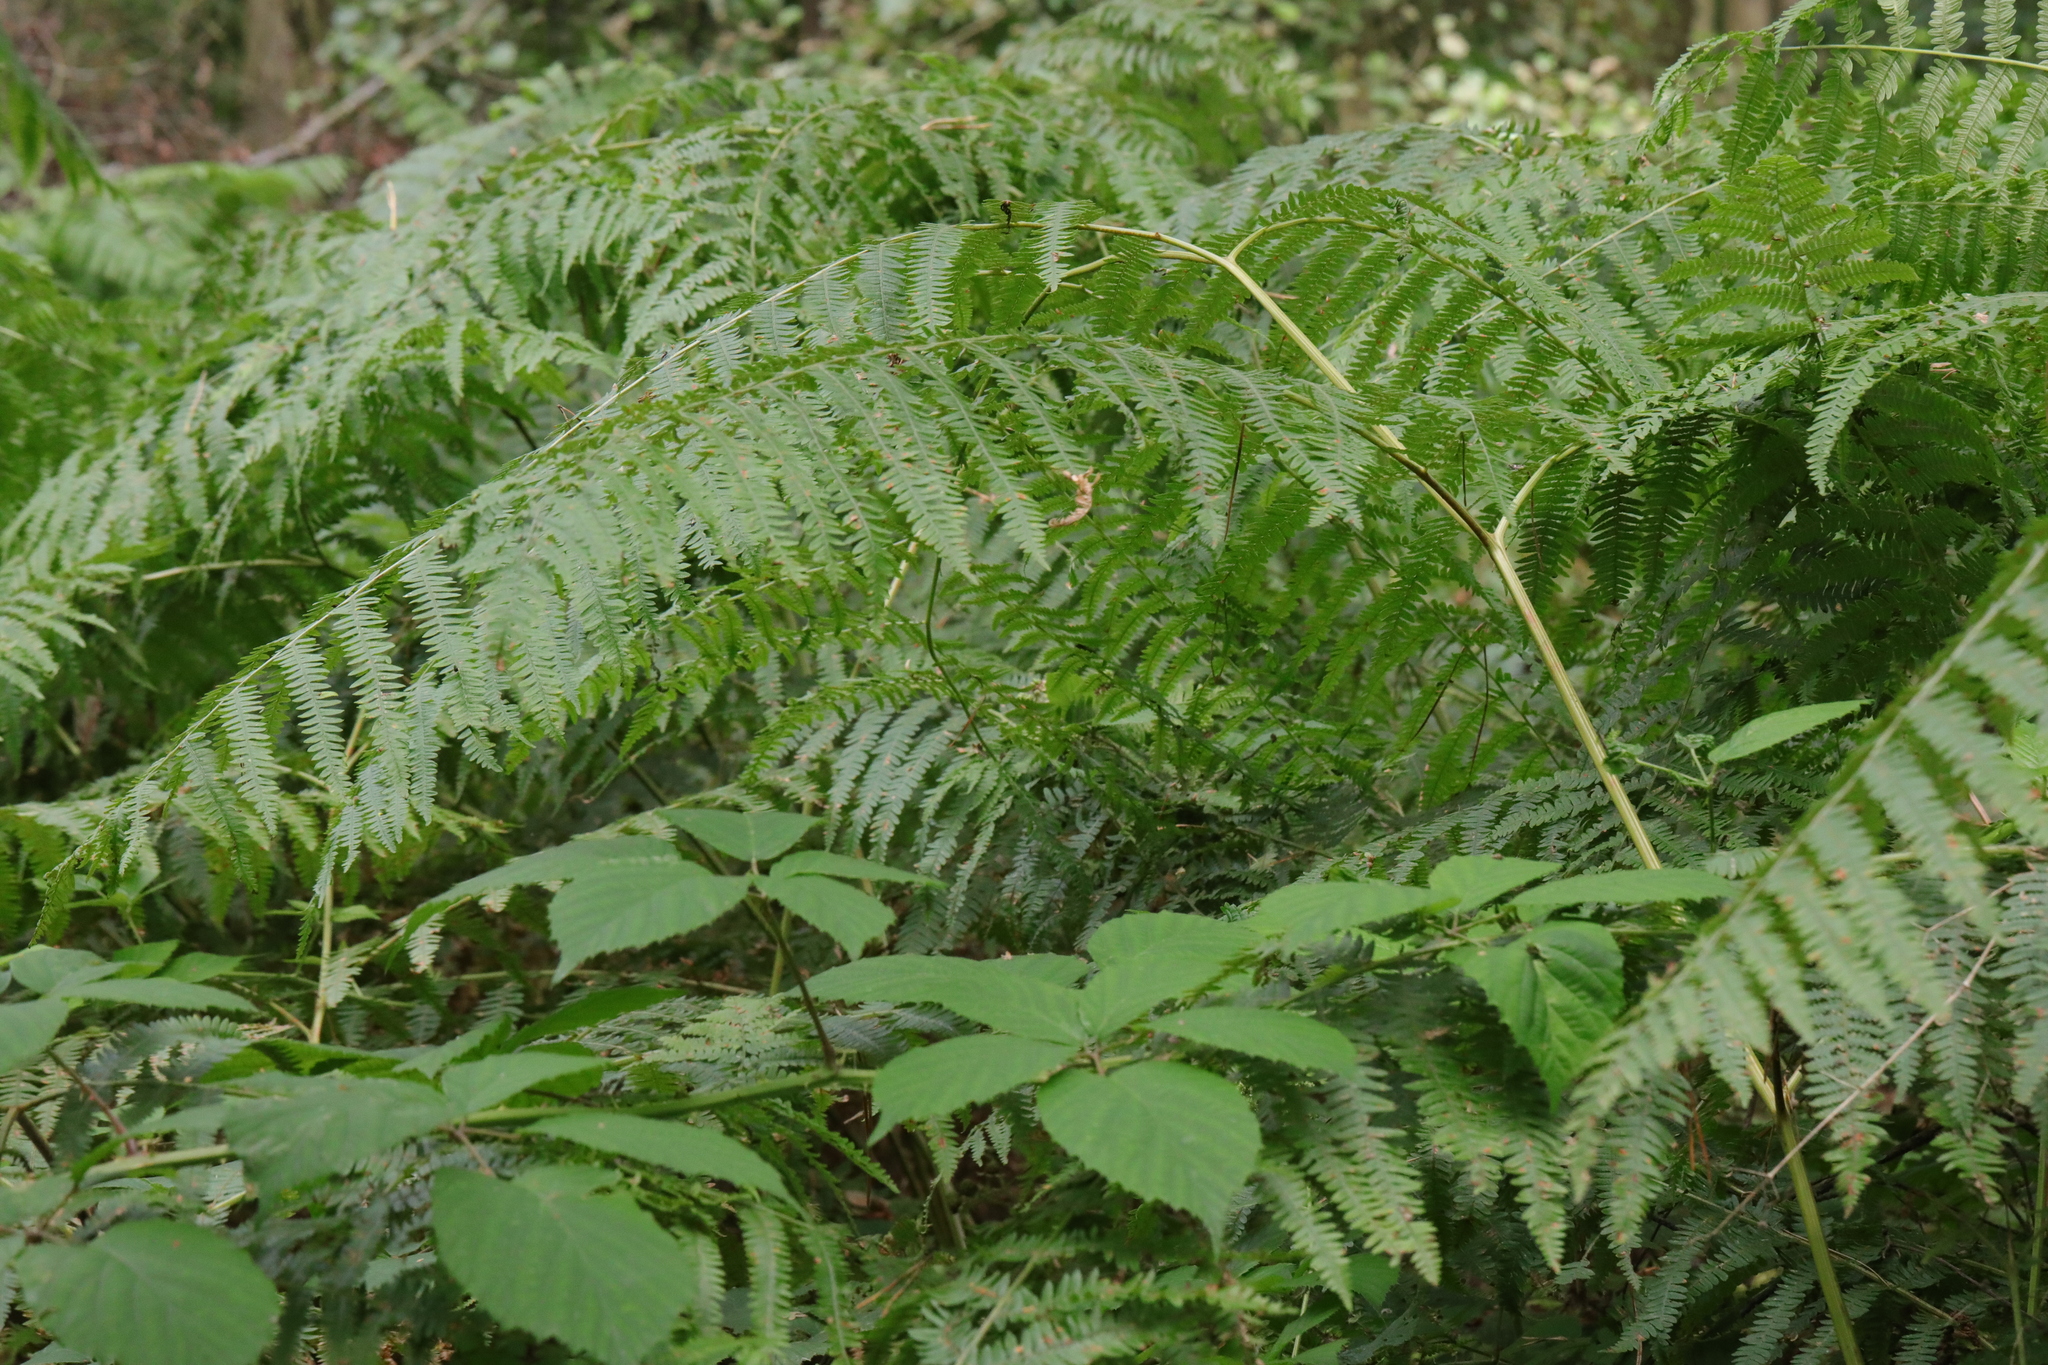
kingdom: Plantae
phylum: Tracheophyta
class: Polypodiopsida
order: Polypodiales
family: Dennstaedtiaceae
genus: Pteridium
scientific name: Pteridium aquilinum
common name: Bracken
